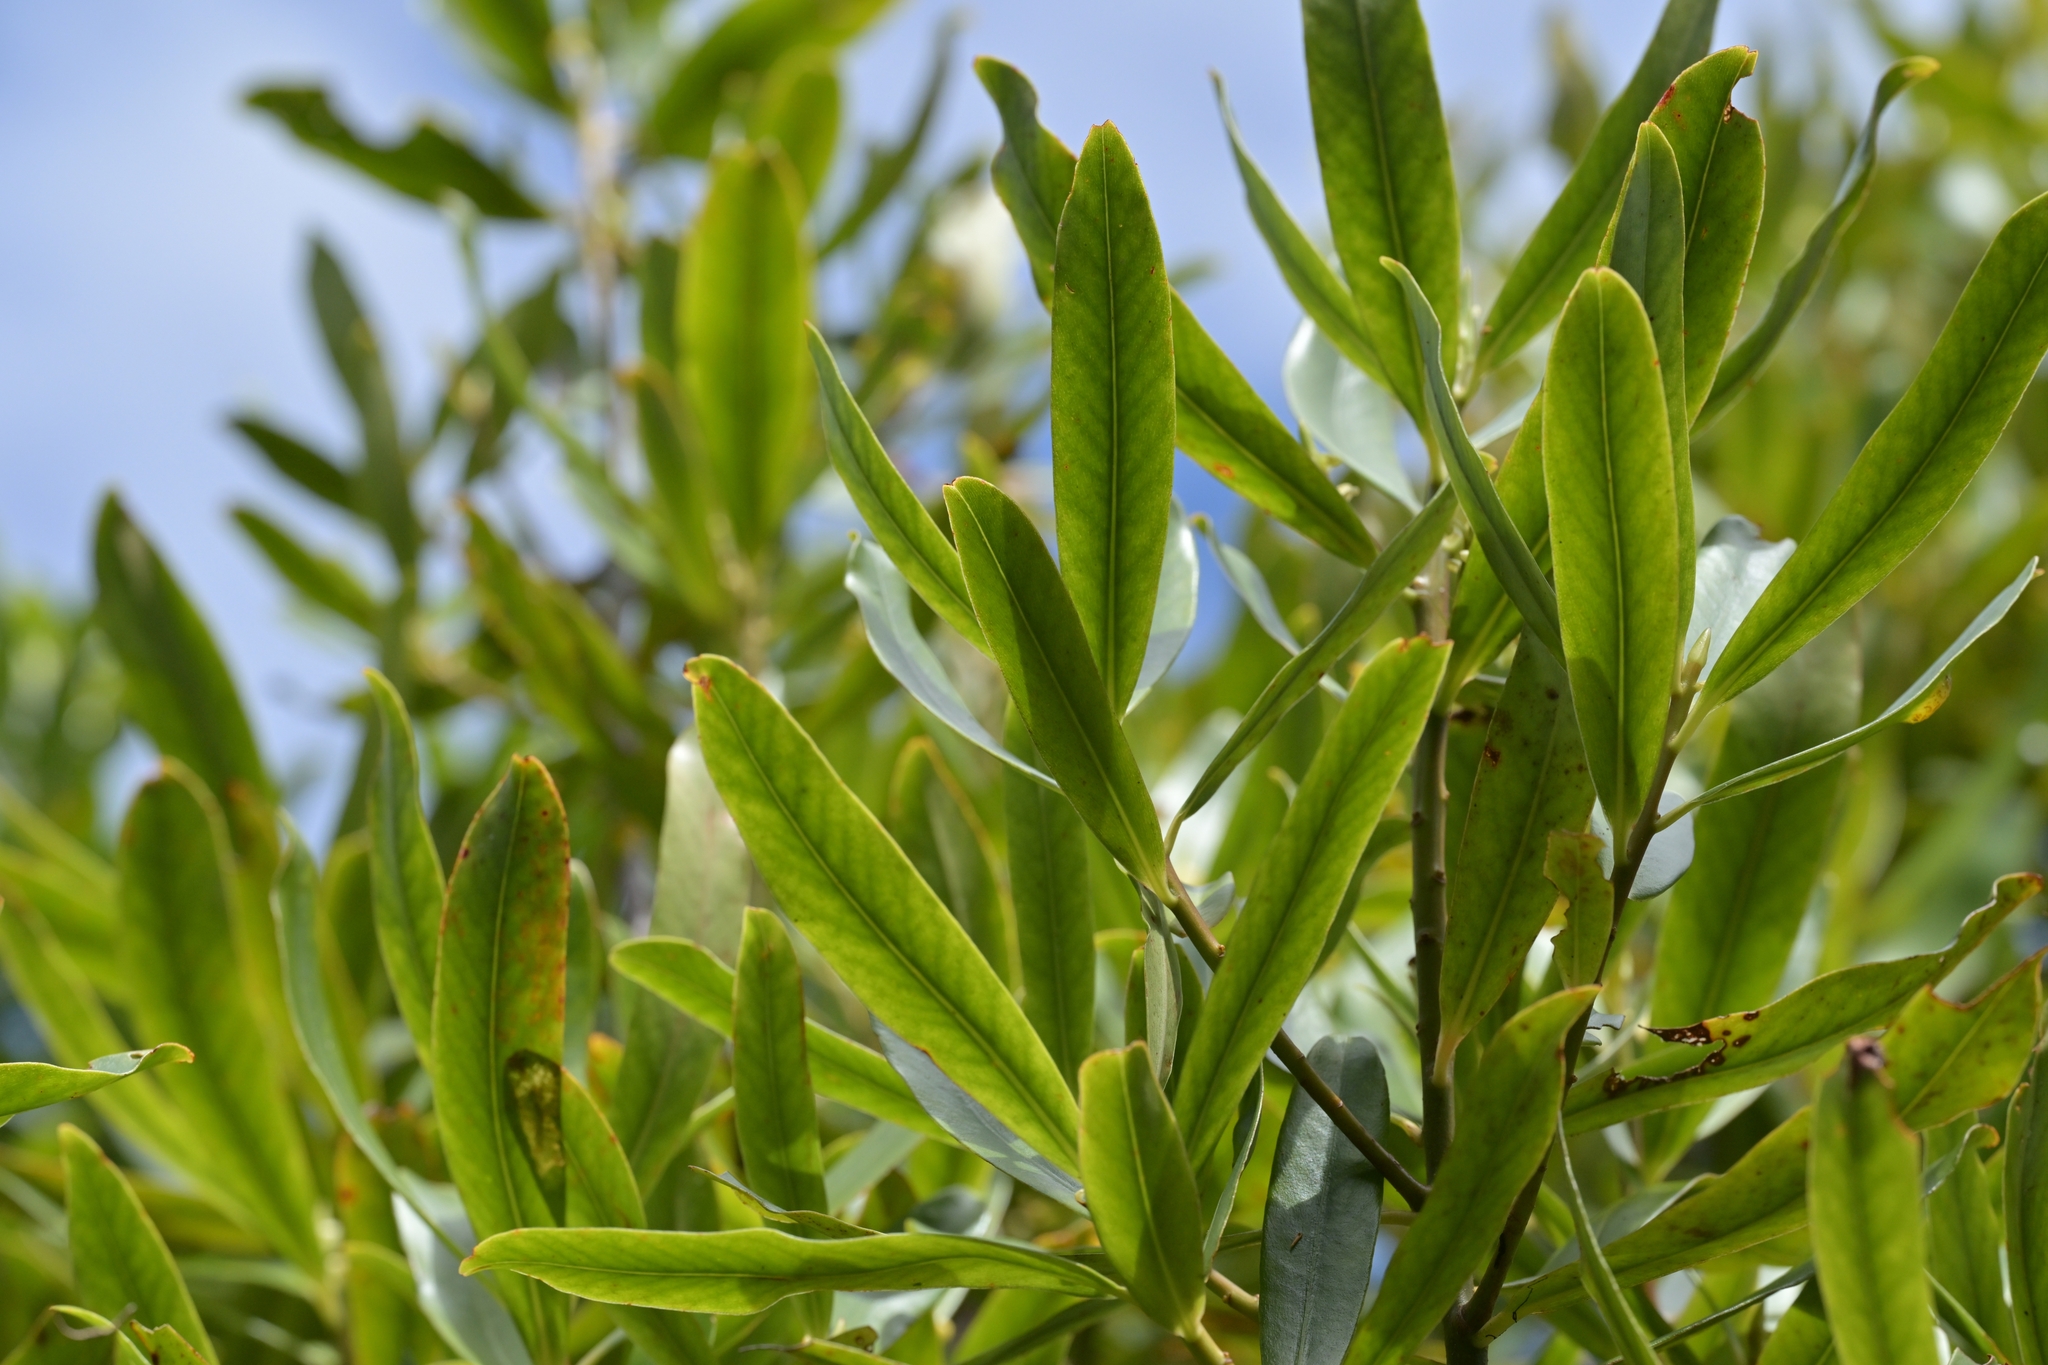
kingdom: Plantae
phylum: Tracheophyta
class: Magnoliopsida
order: Ericales
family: Primulaceae
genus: Myrsine
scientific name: Myrsine salicina
